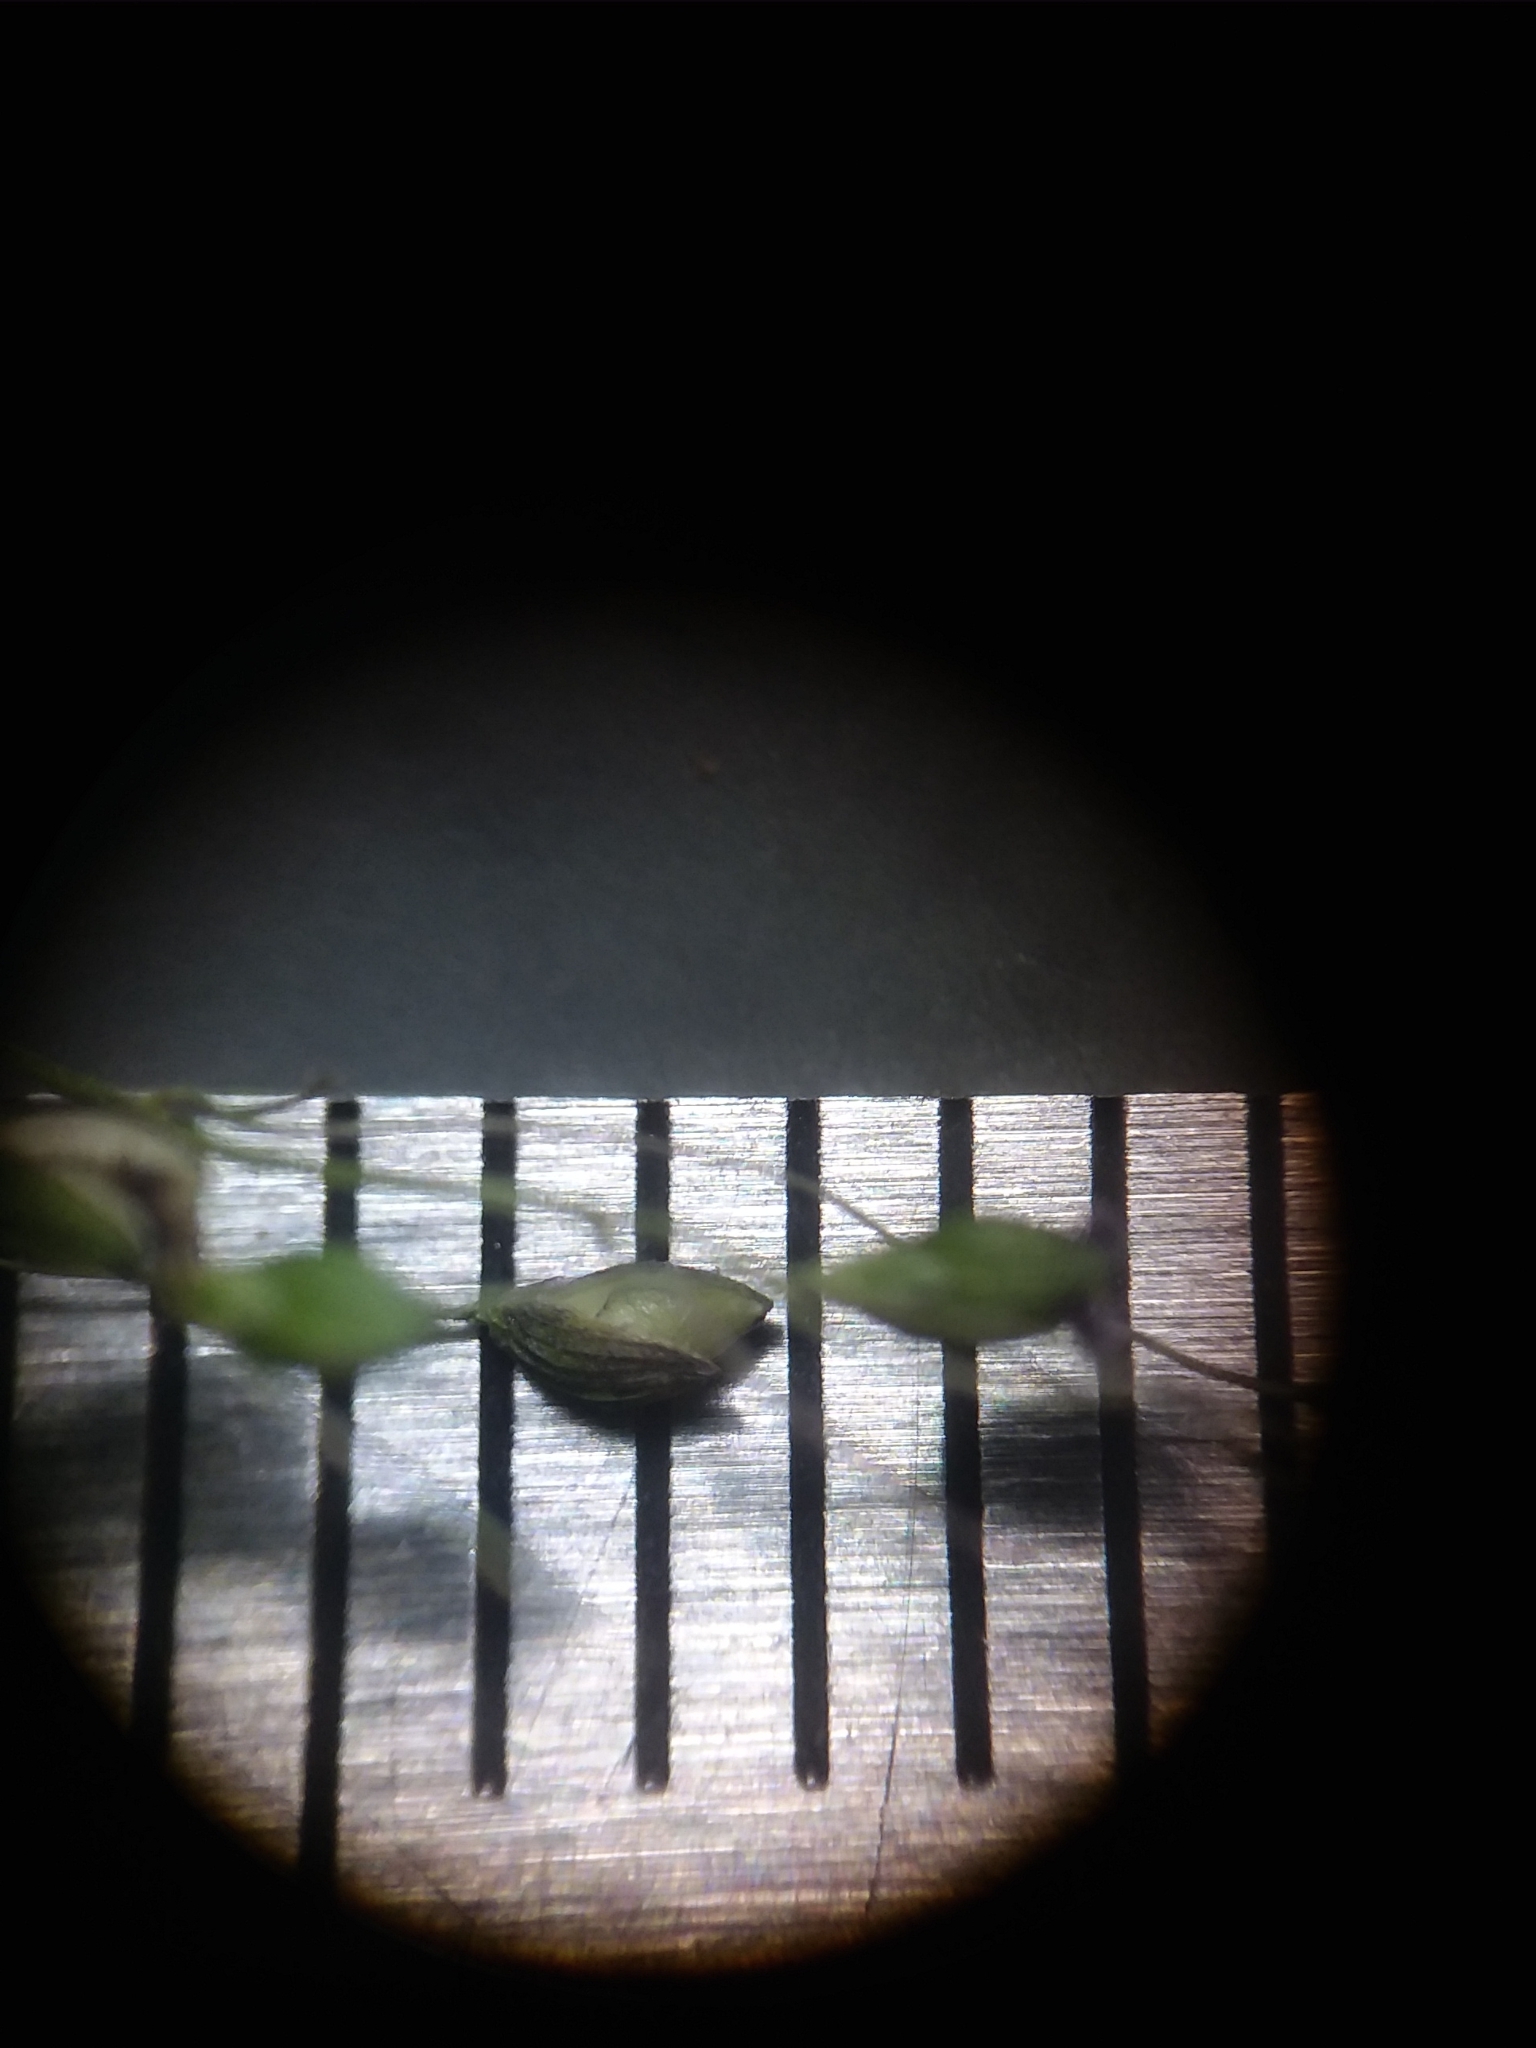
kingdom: Plantae
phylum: Tracheophyta
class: Liliopsida
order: Poales
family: Poaceae
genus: Dichanthelium
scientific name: Dichanthelium roanokense
